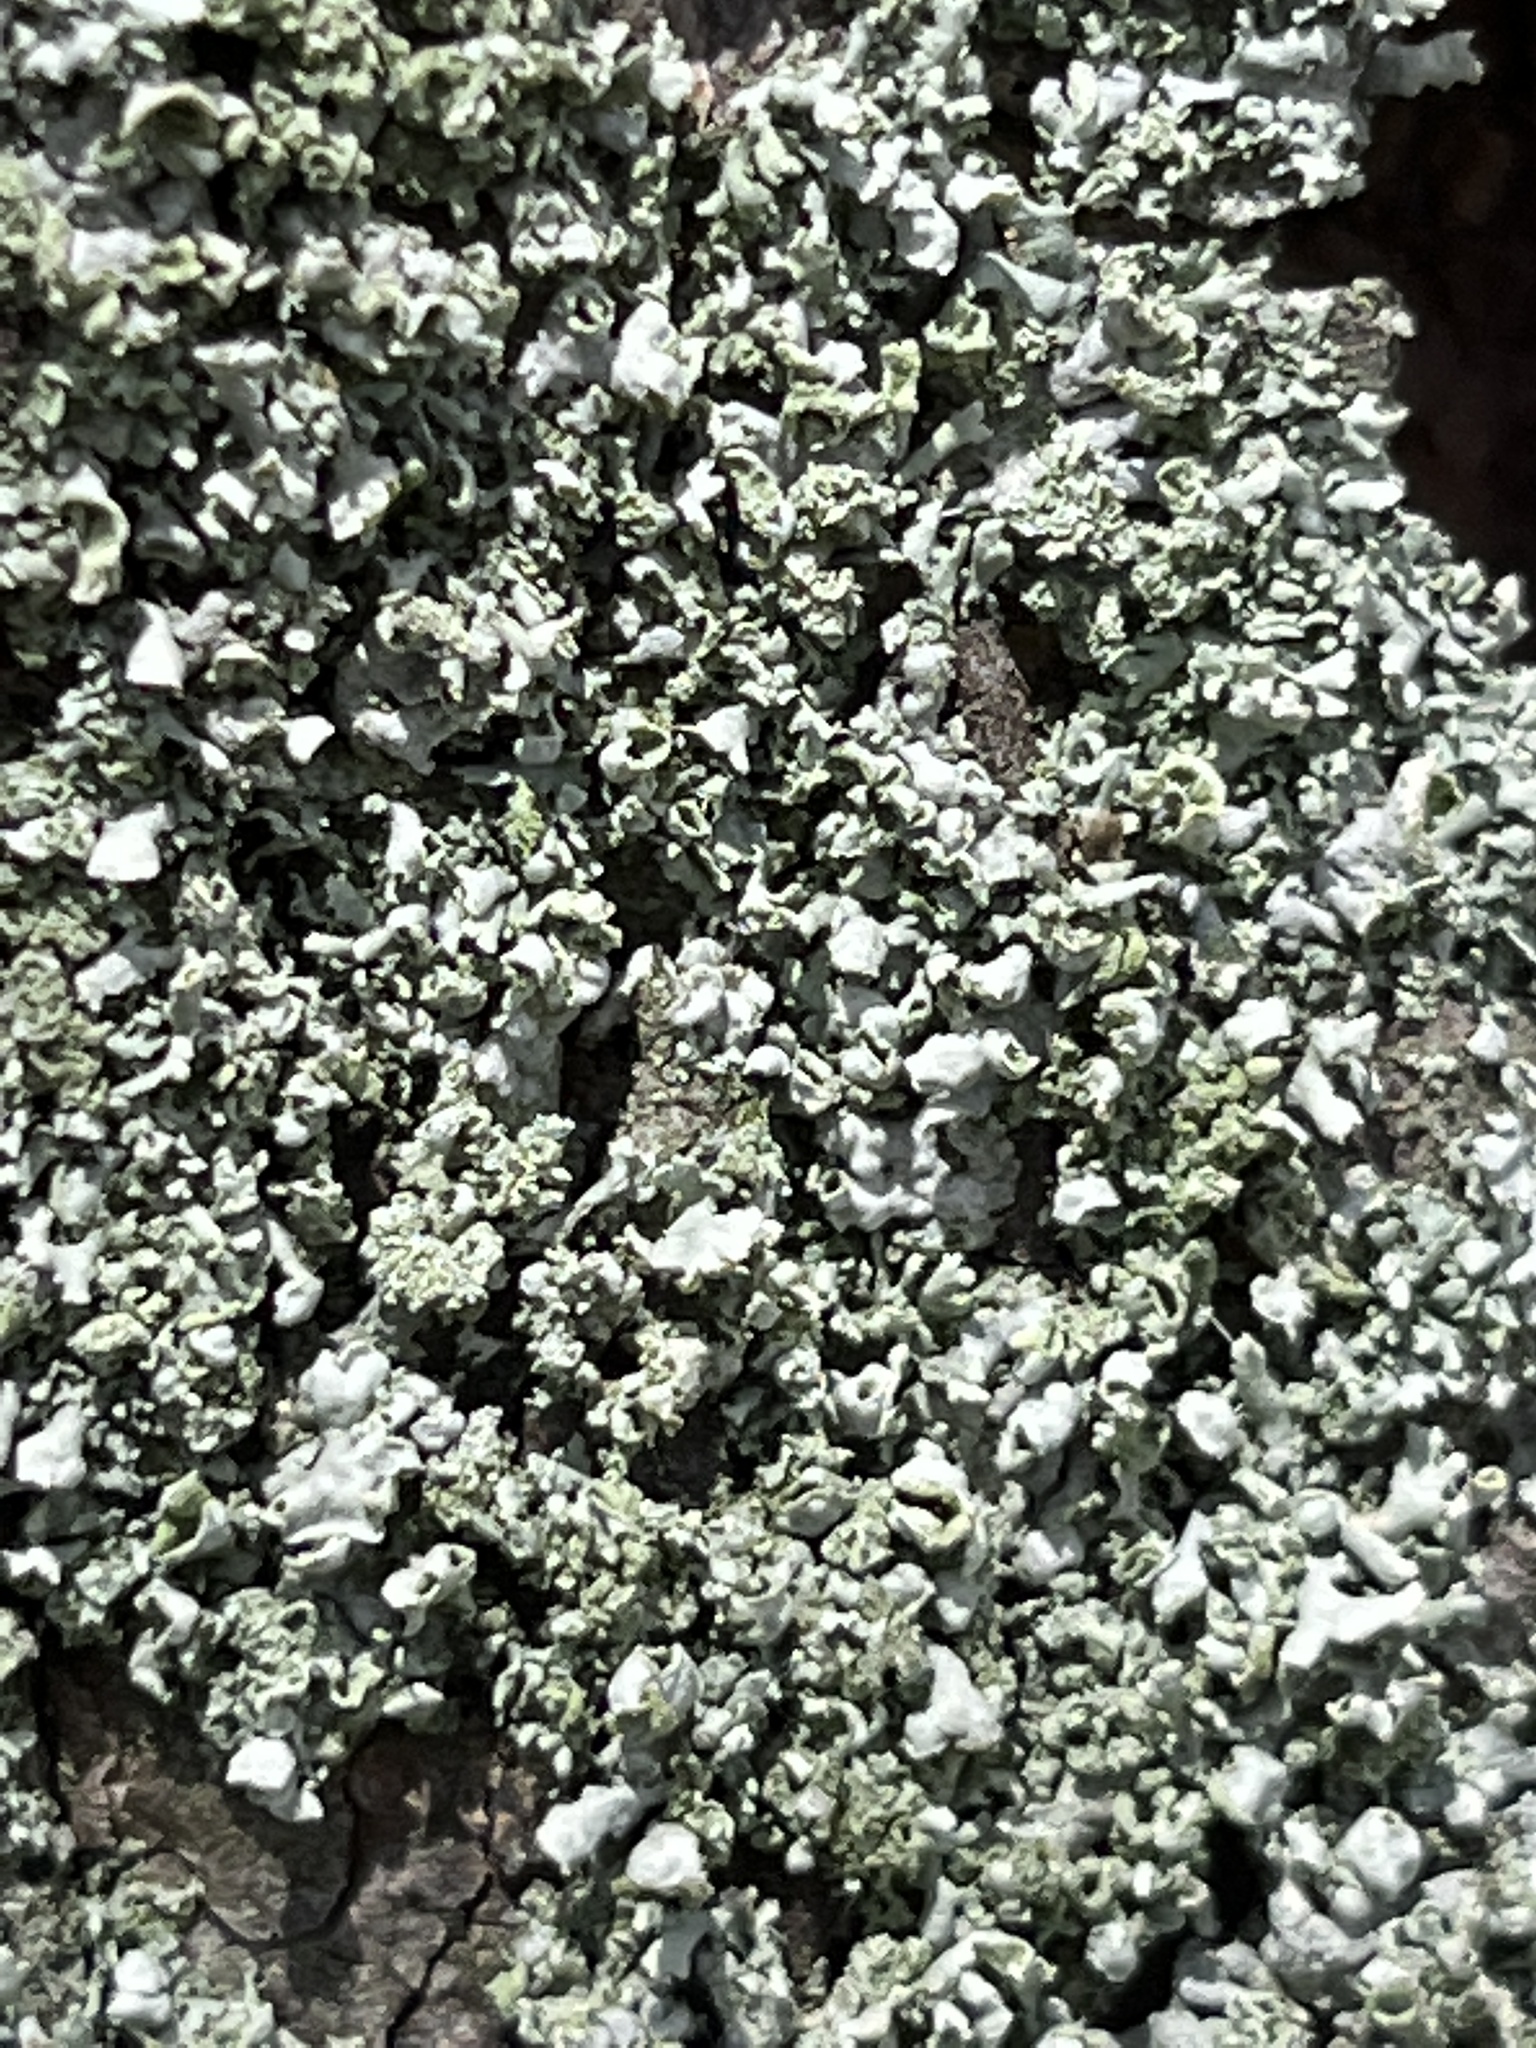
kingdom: Fungi
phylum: Ascomycota
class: Lecanoromycetes
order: Caliciales
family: Physciaceae
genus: Physcia
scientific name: Physcia adscendens
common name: Hooded rosette lichen
